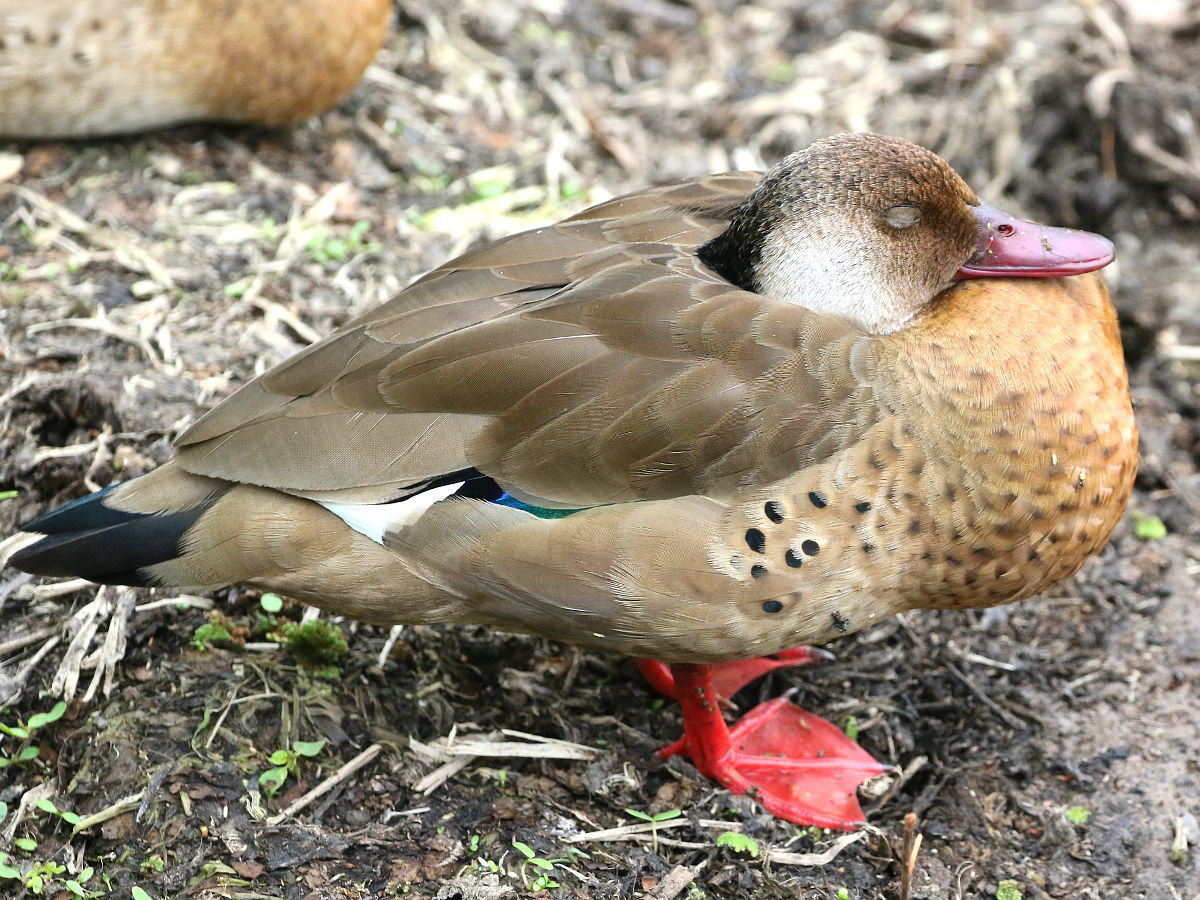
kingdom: Animalia
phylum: Chordata
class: Aves
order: Anseriformes
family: Anatidae
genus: Amazonetta
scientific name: Amazonetta brasiliensis
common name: Brazilian teal
